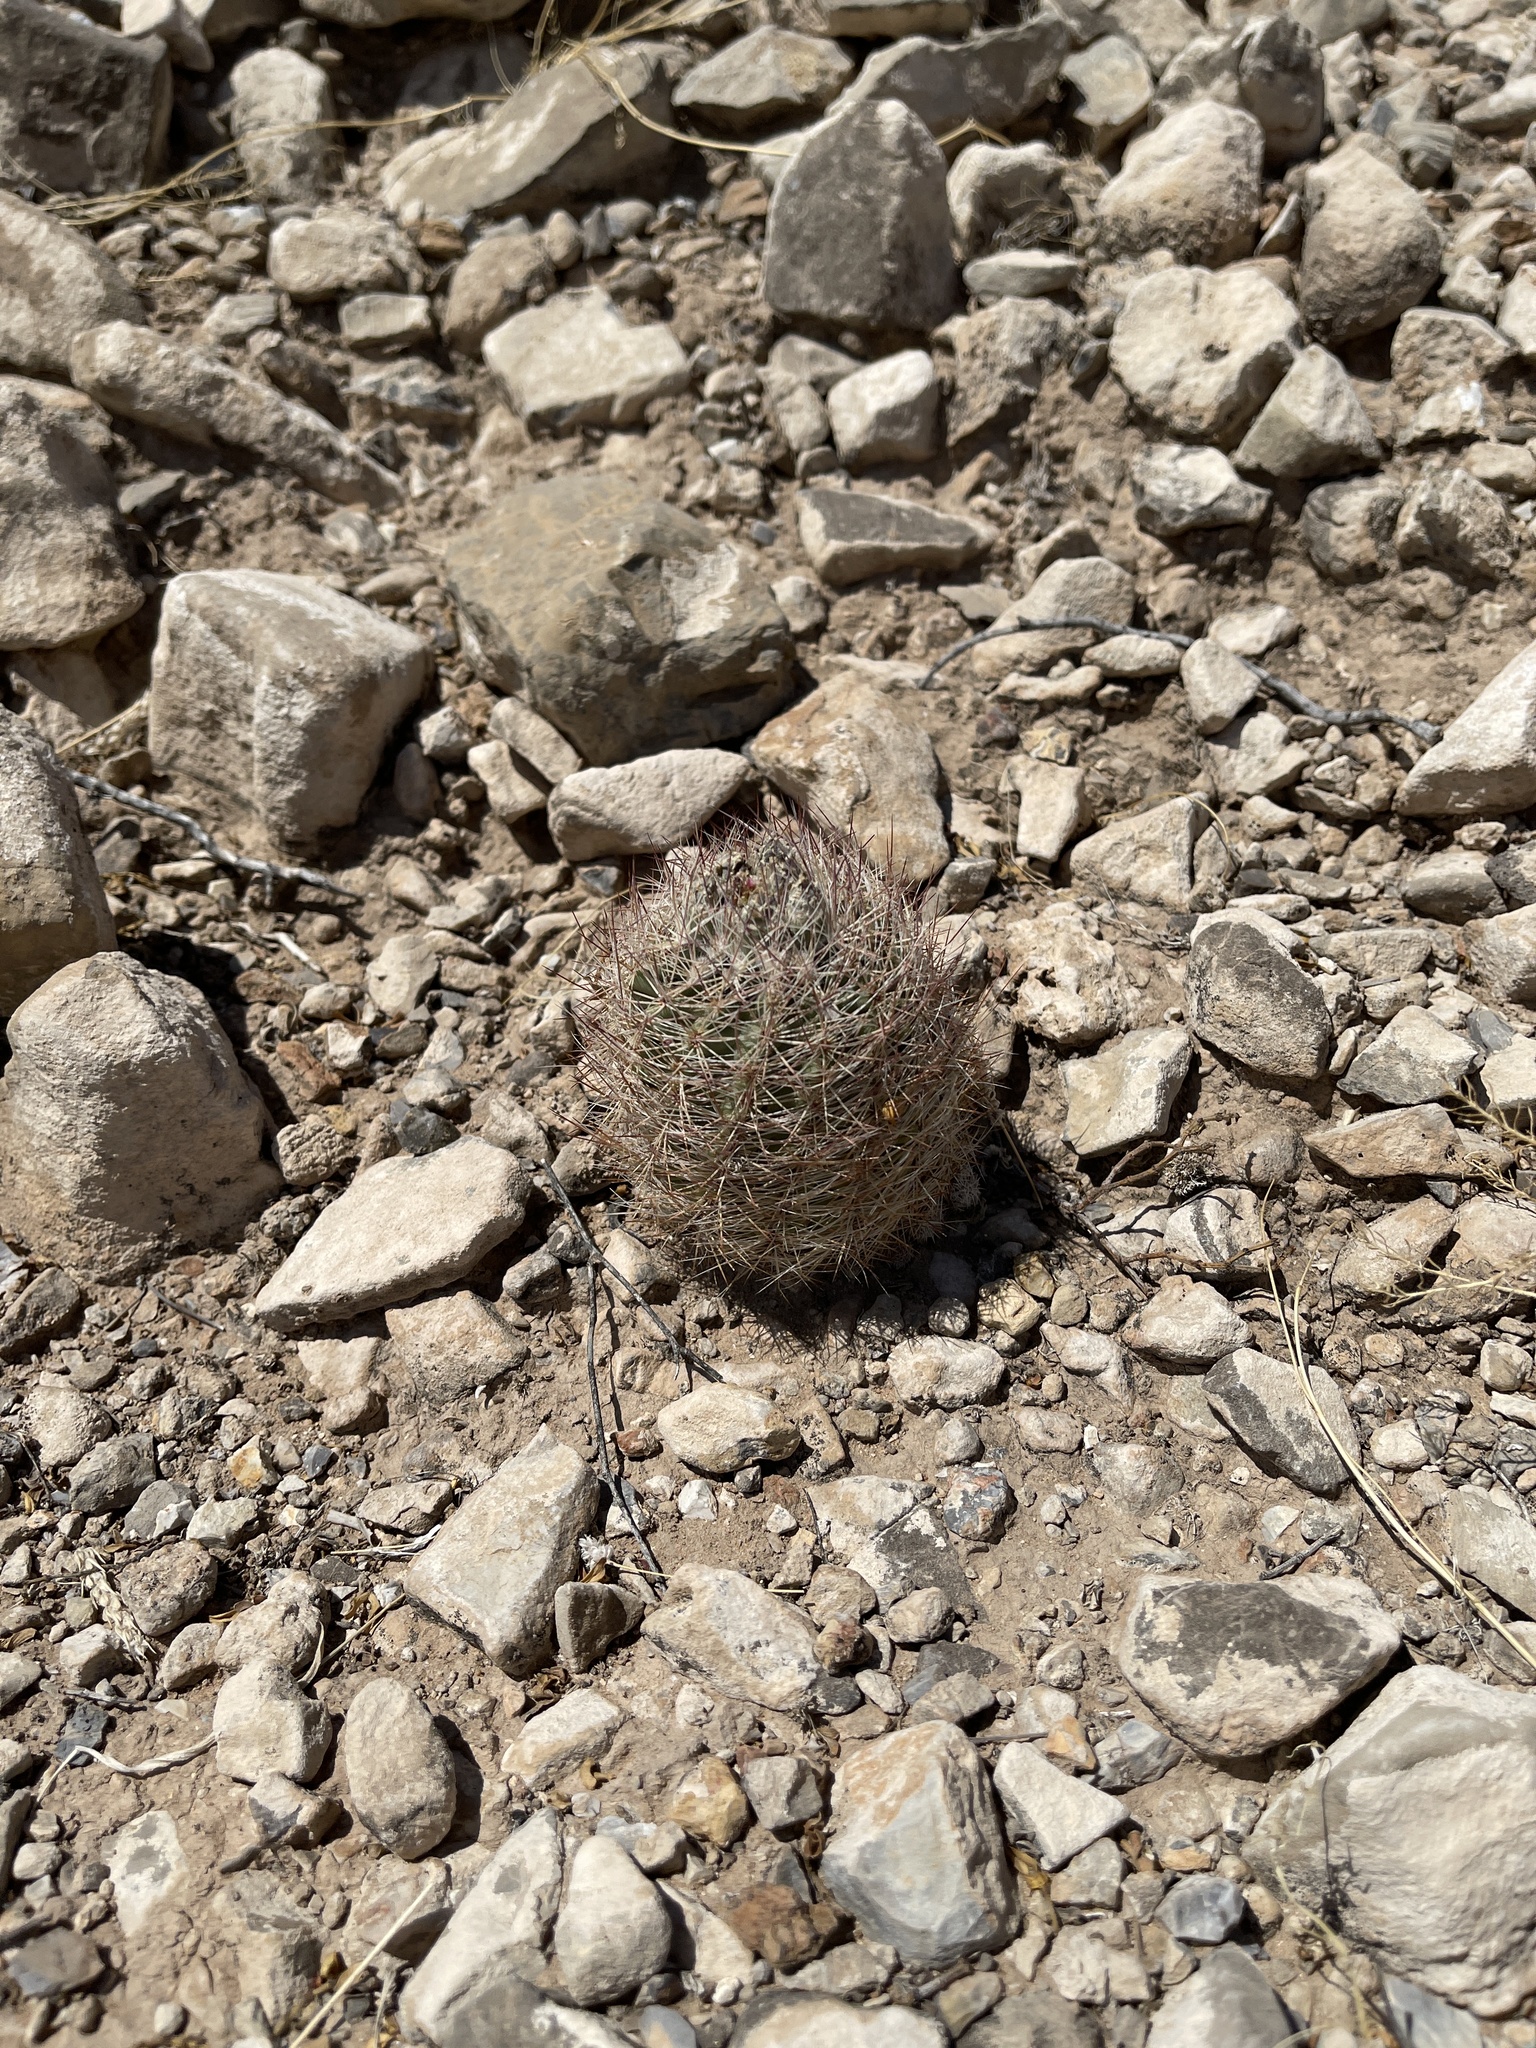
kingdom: Plantae
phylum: Tracheophyta
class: Magnoliopsida
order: Caryophyllales
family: Cactaceae
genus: Sclerocactus
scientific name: Sclerocactus intertextus
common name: White fish-hook cactus
